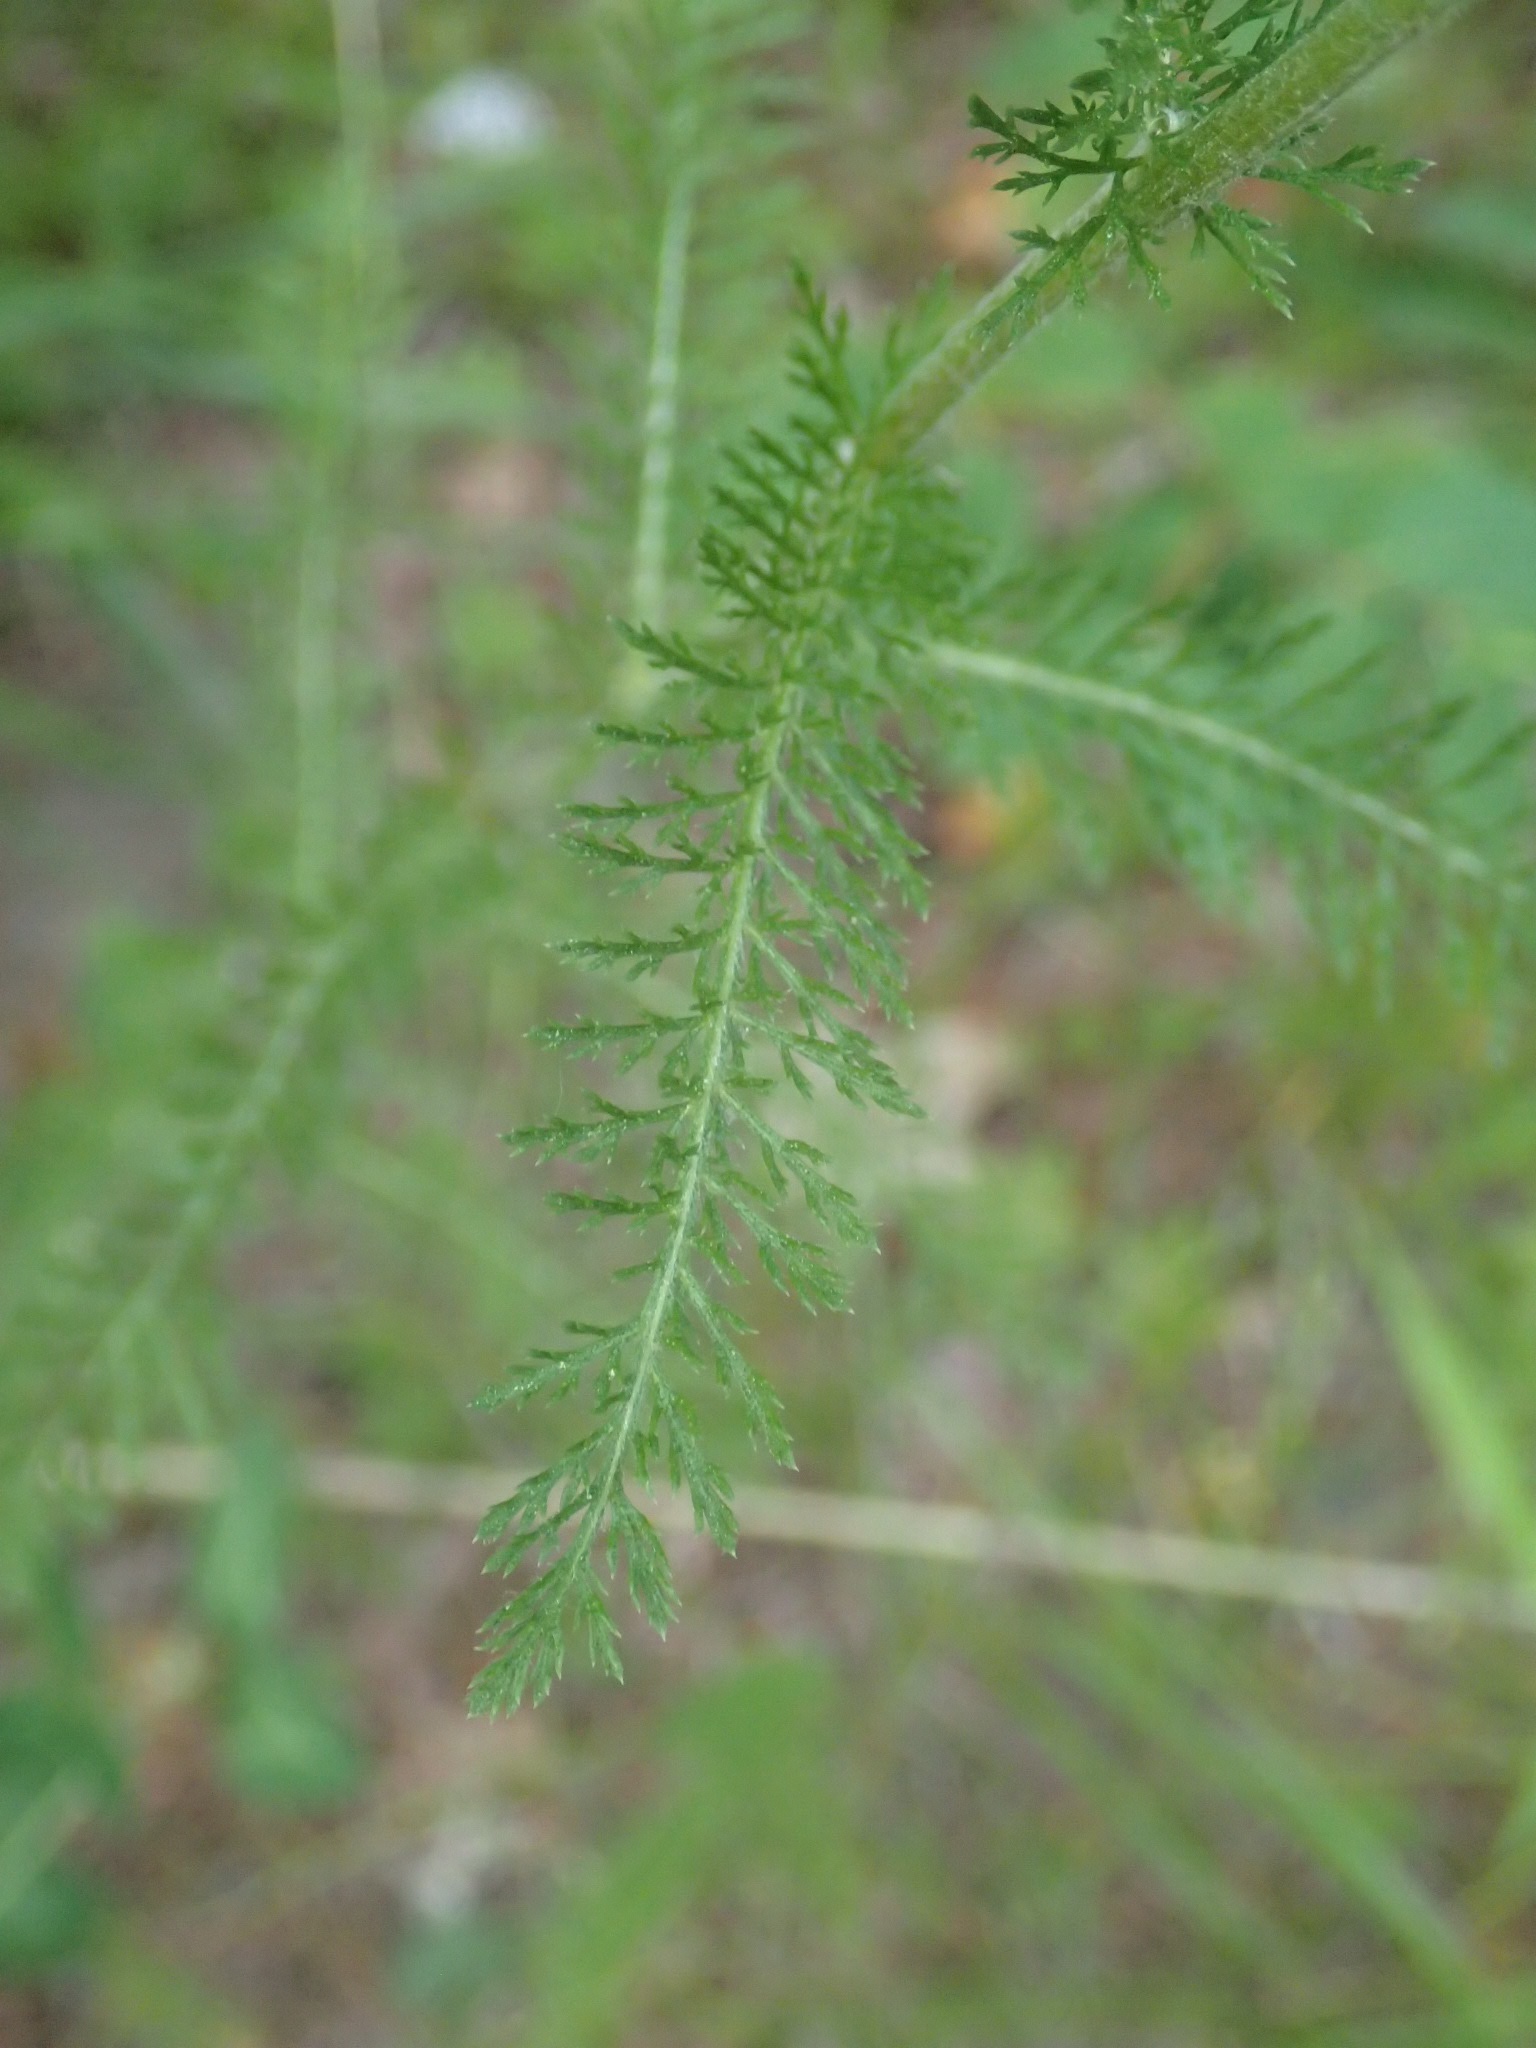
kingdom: Plantae
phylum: Tracheophyta
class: Magnoliopsida
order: Asterales
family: Asteraceae
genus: Achillea
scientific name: Achillea millefolium
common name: Yarrow
